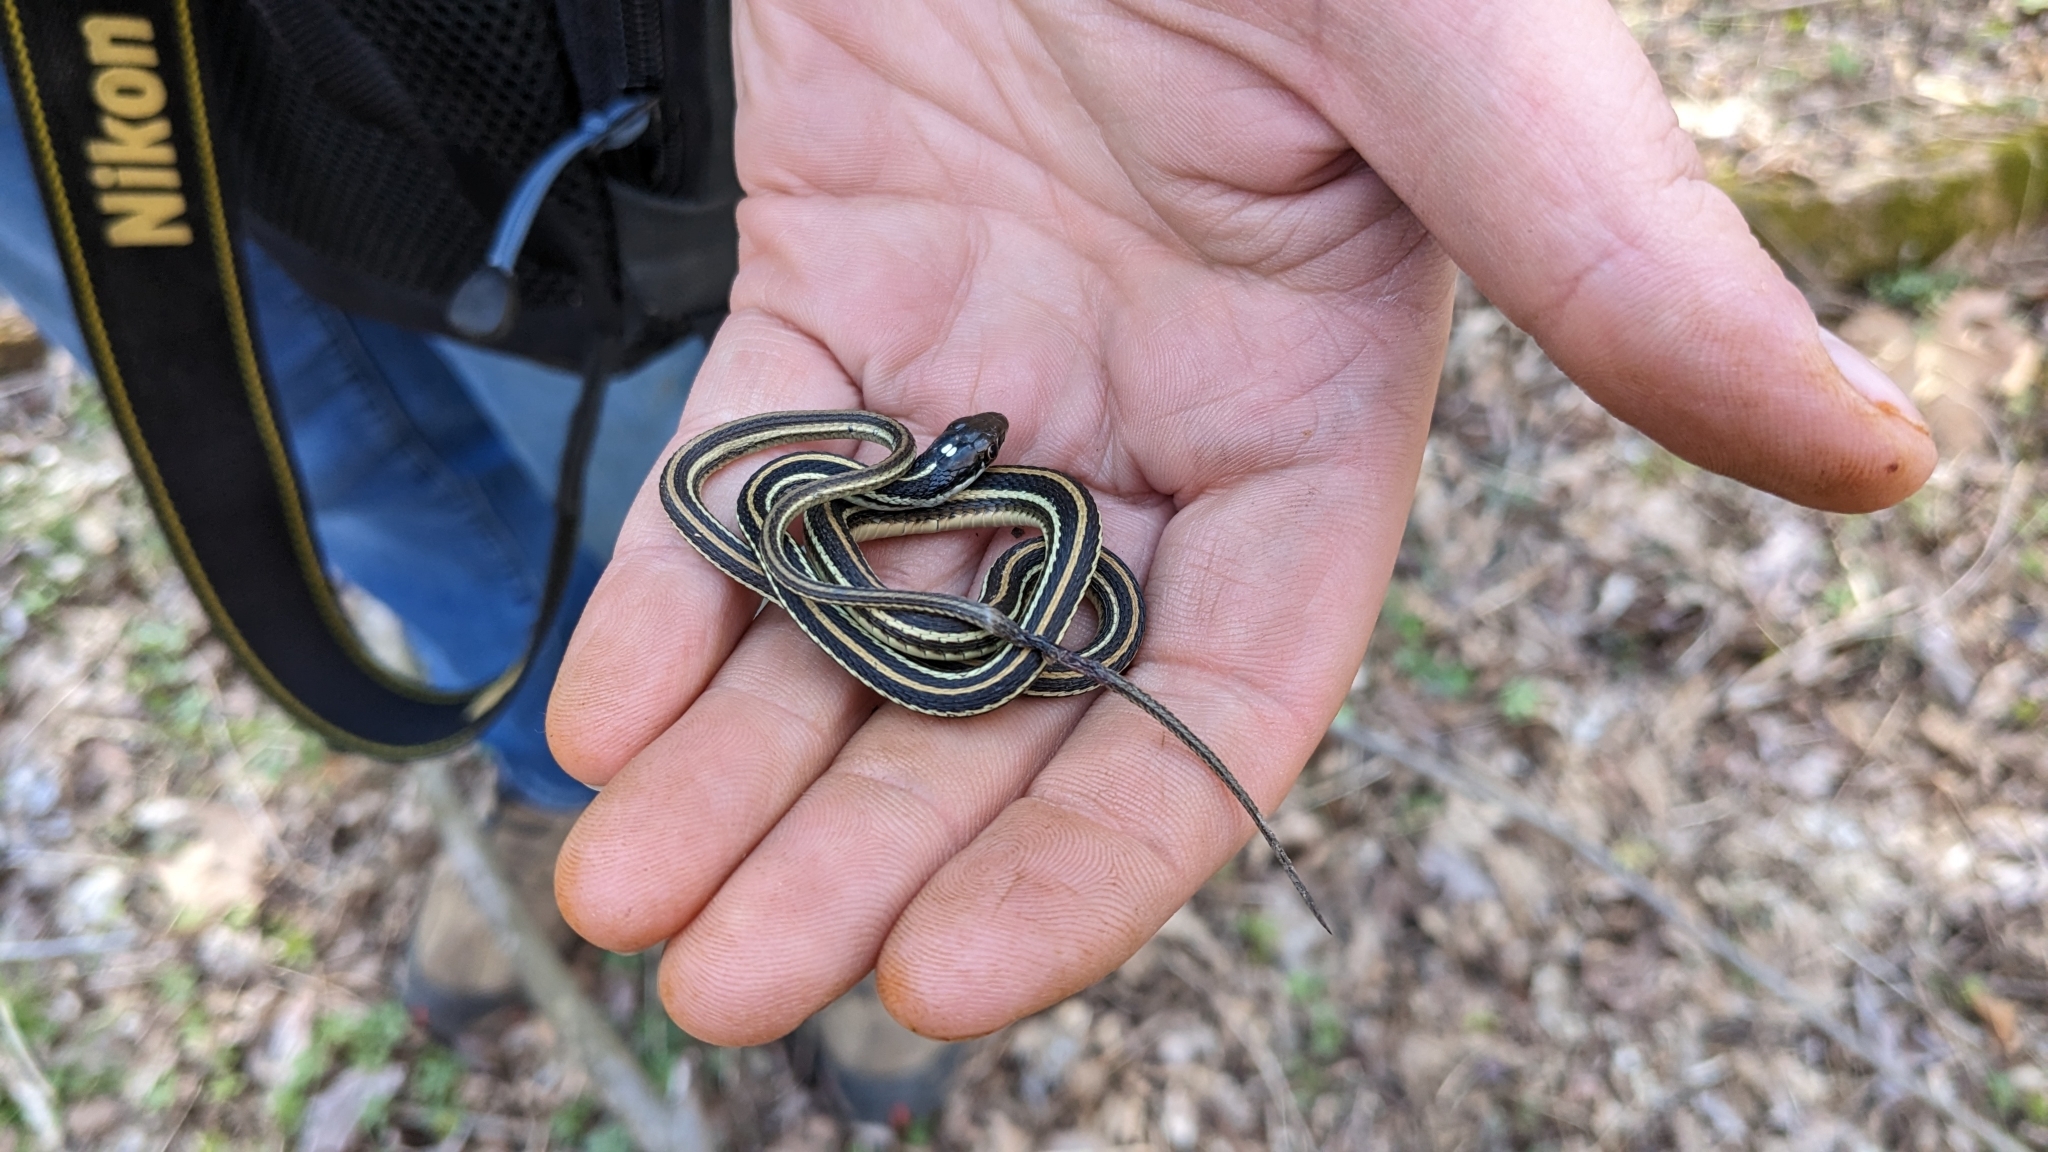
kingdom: Animalia
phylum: Chordata
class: Squamata
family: Colubridae
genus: Thamnophis
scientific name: Thamnophis proximus
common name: Western ribbon snake
